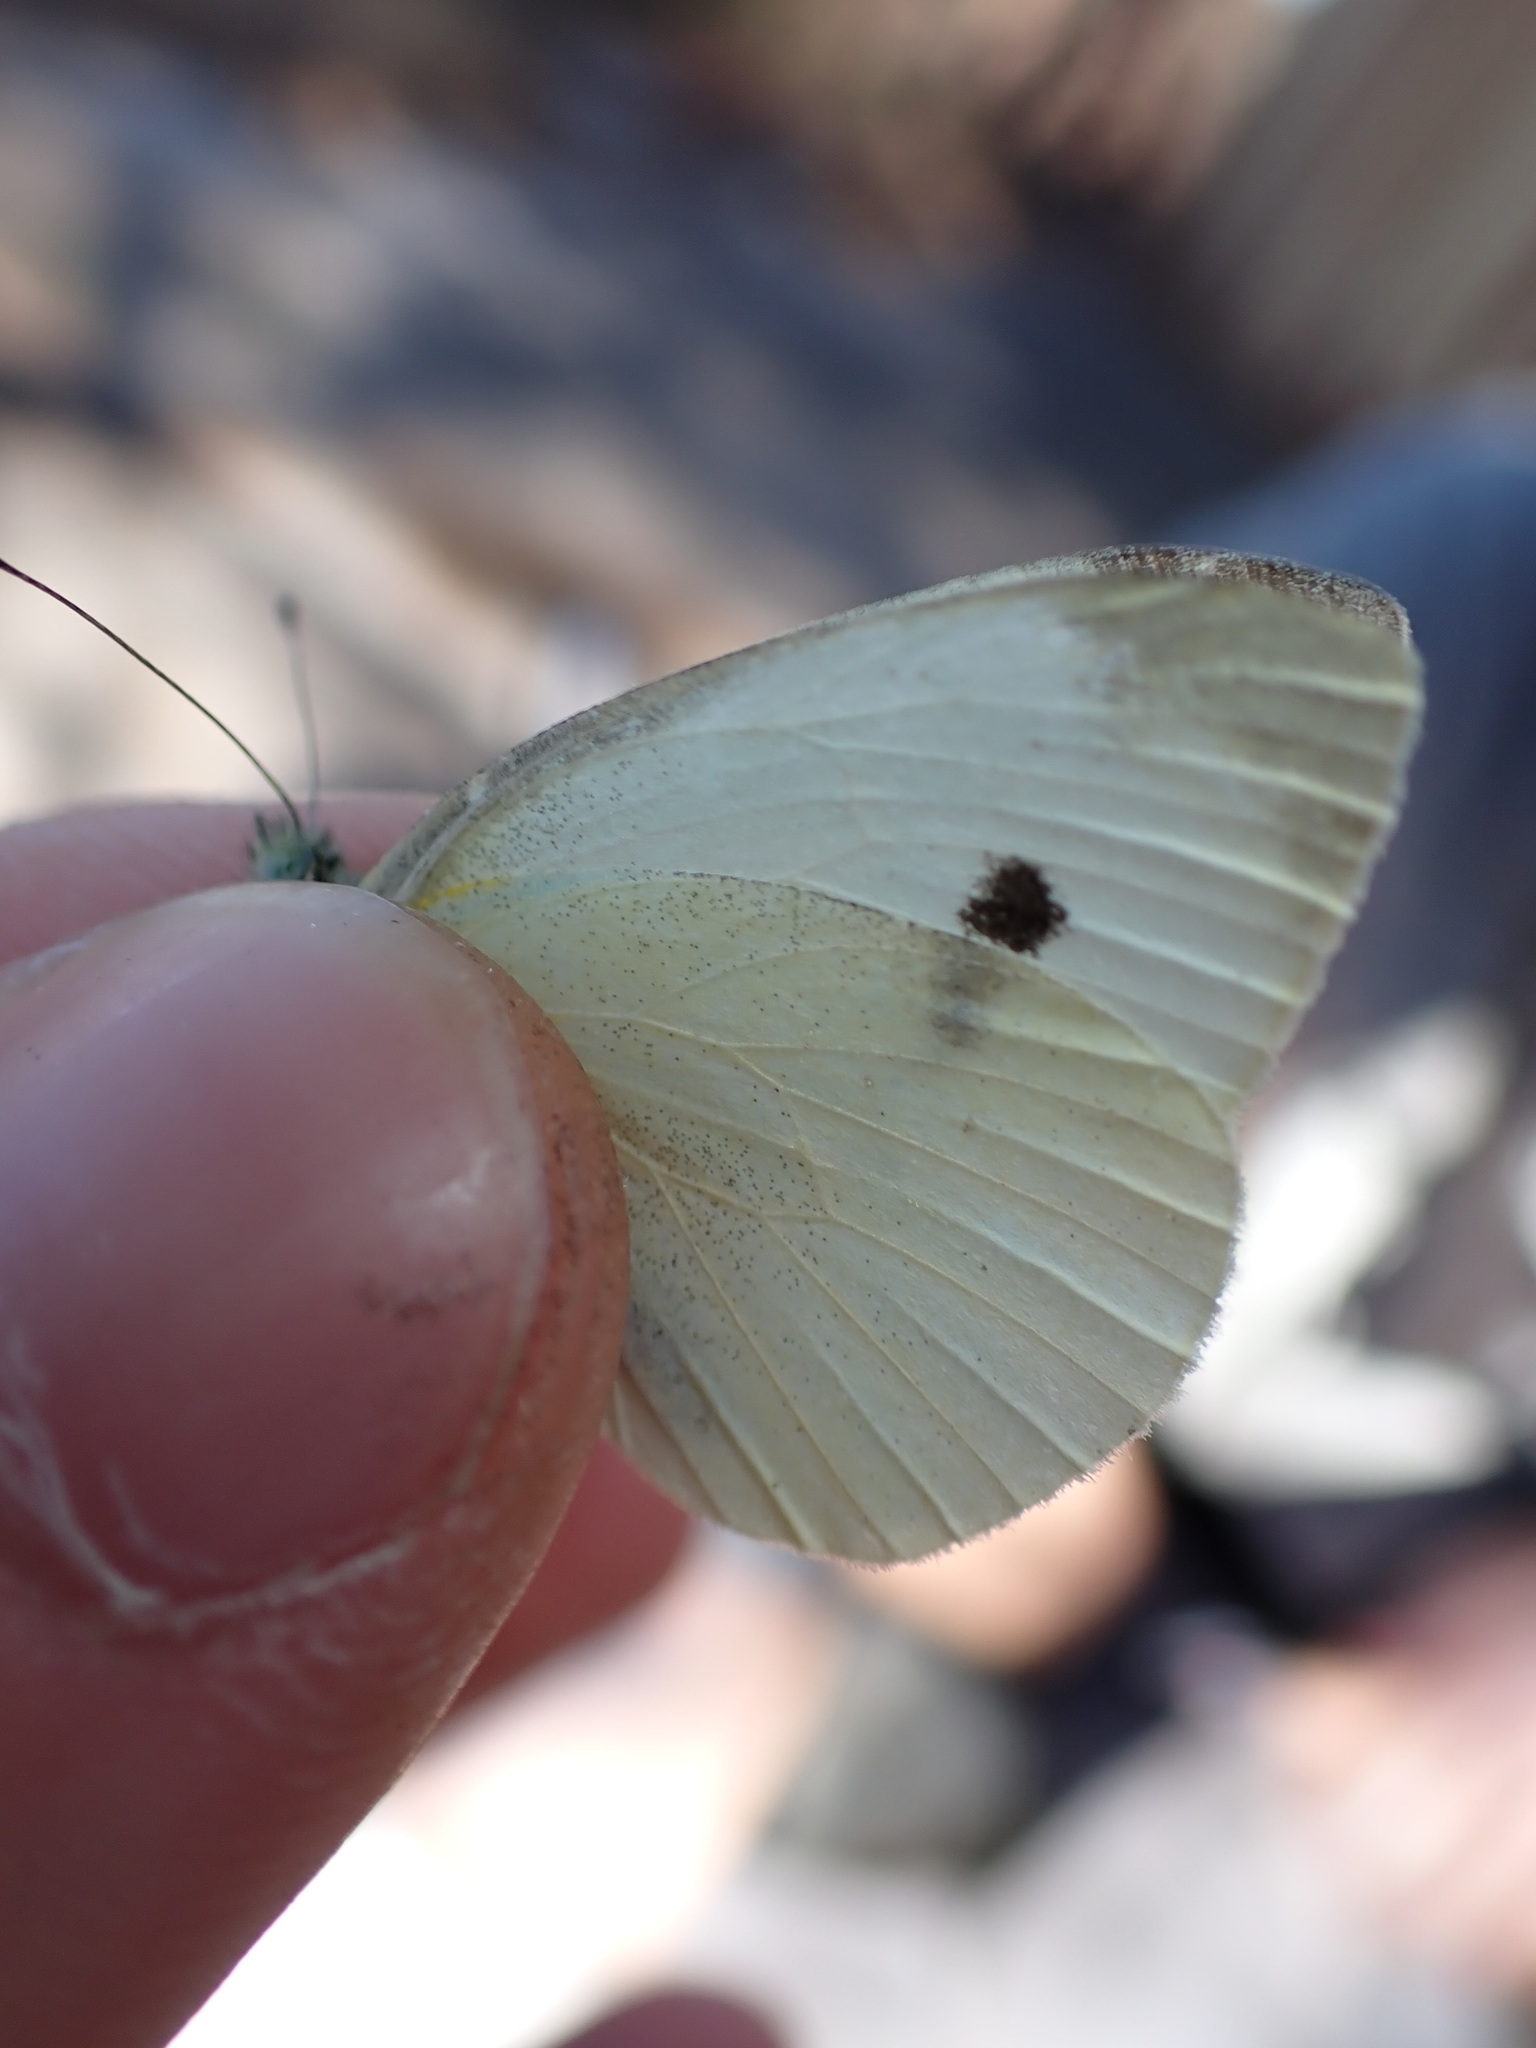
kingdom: Animalia
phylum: Arthropoda
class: Insecta
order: Lepidoptera
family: Pieridae
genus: Pieris
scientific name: Pieris brassicae
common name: Large white
